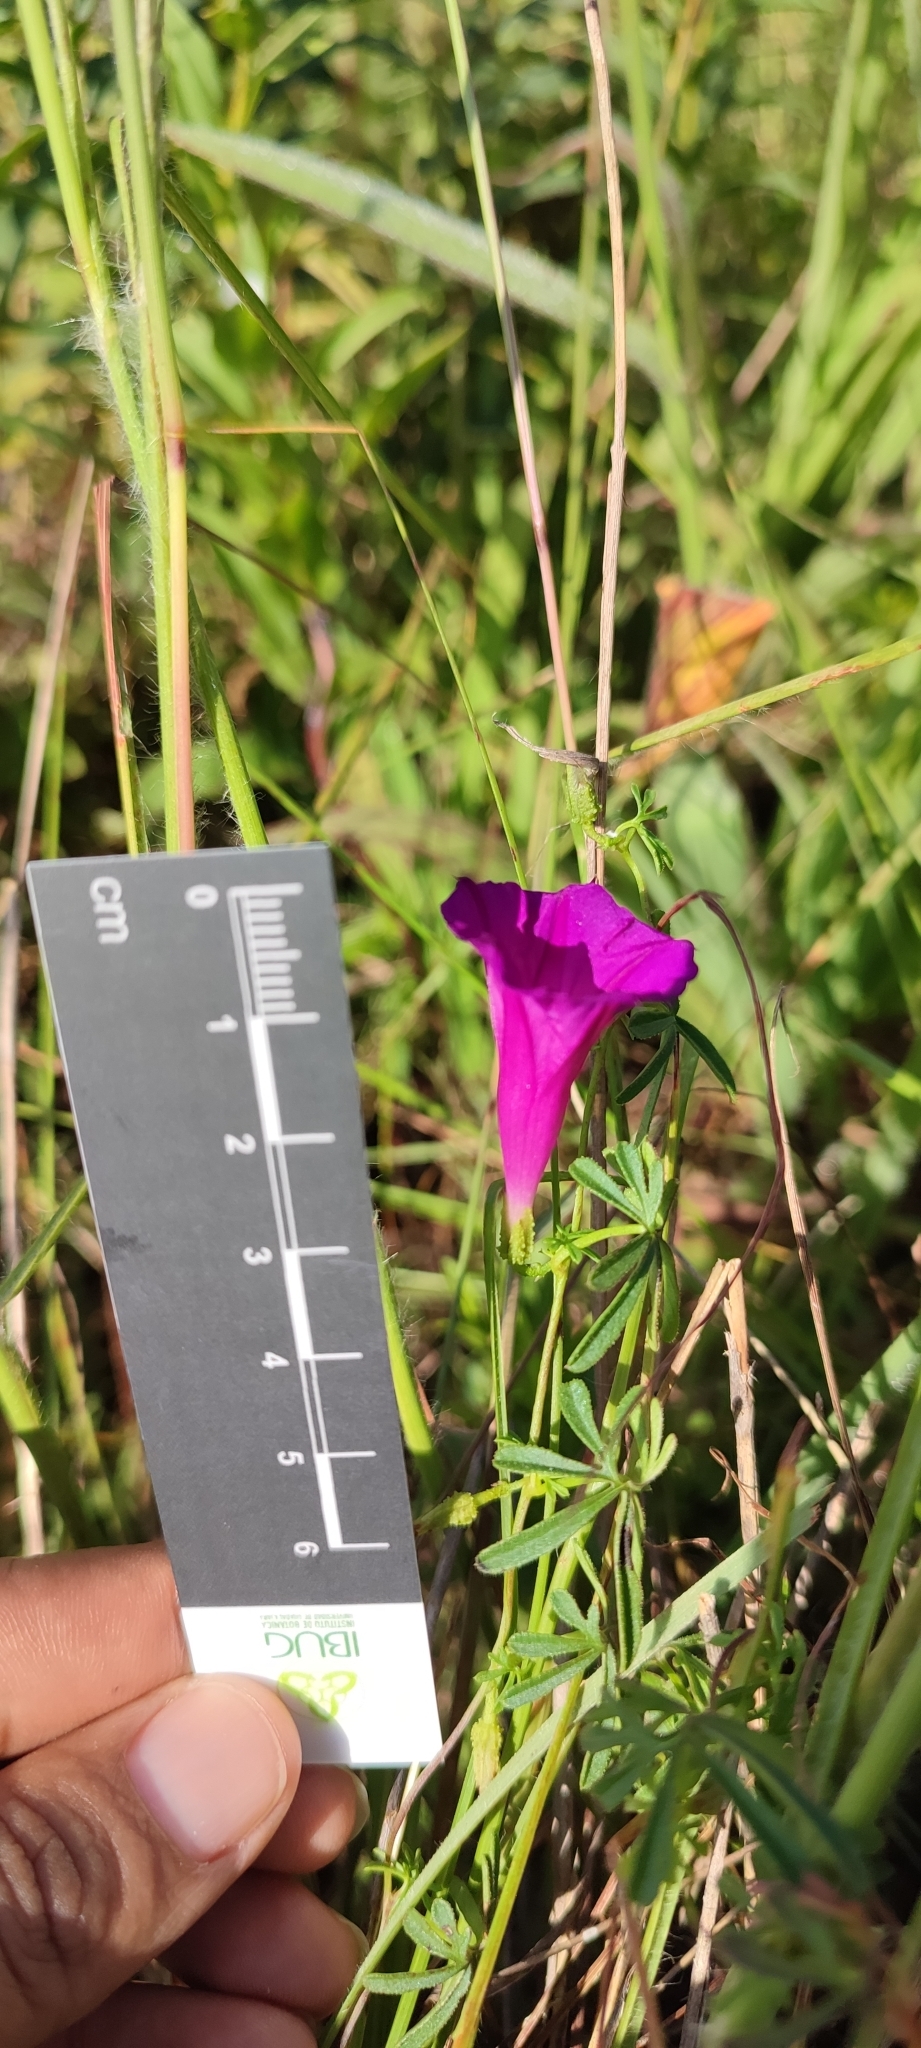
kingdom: Plantae
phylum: Tracheophyta
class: Magnoliopsida
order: Solanales
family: Convolvulaceae
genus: Ipomoea
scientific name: Ipomoea plummerae
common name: Plummer's morning-glory
